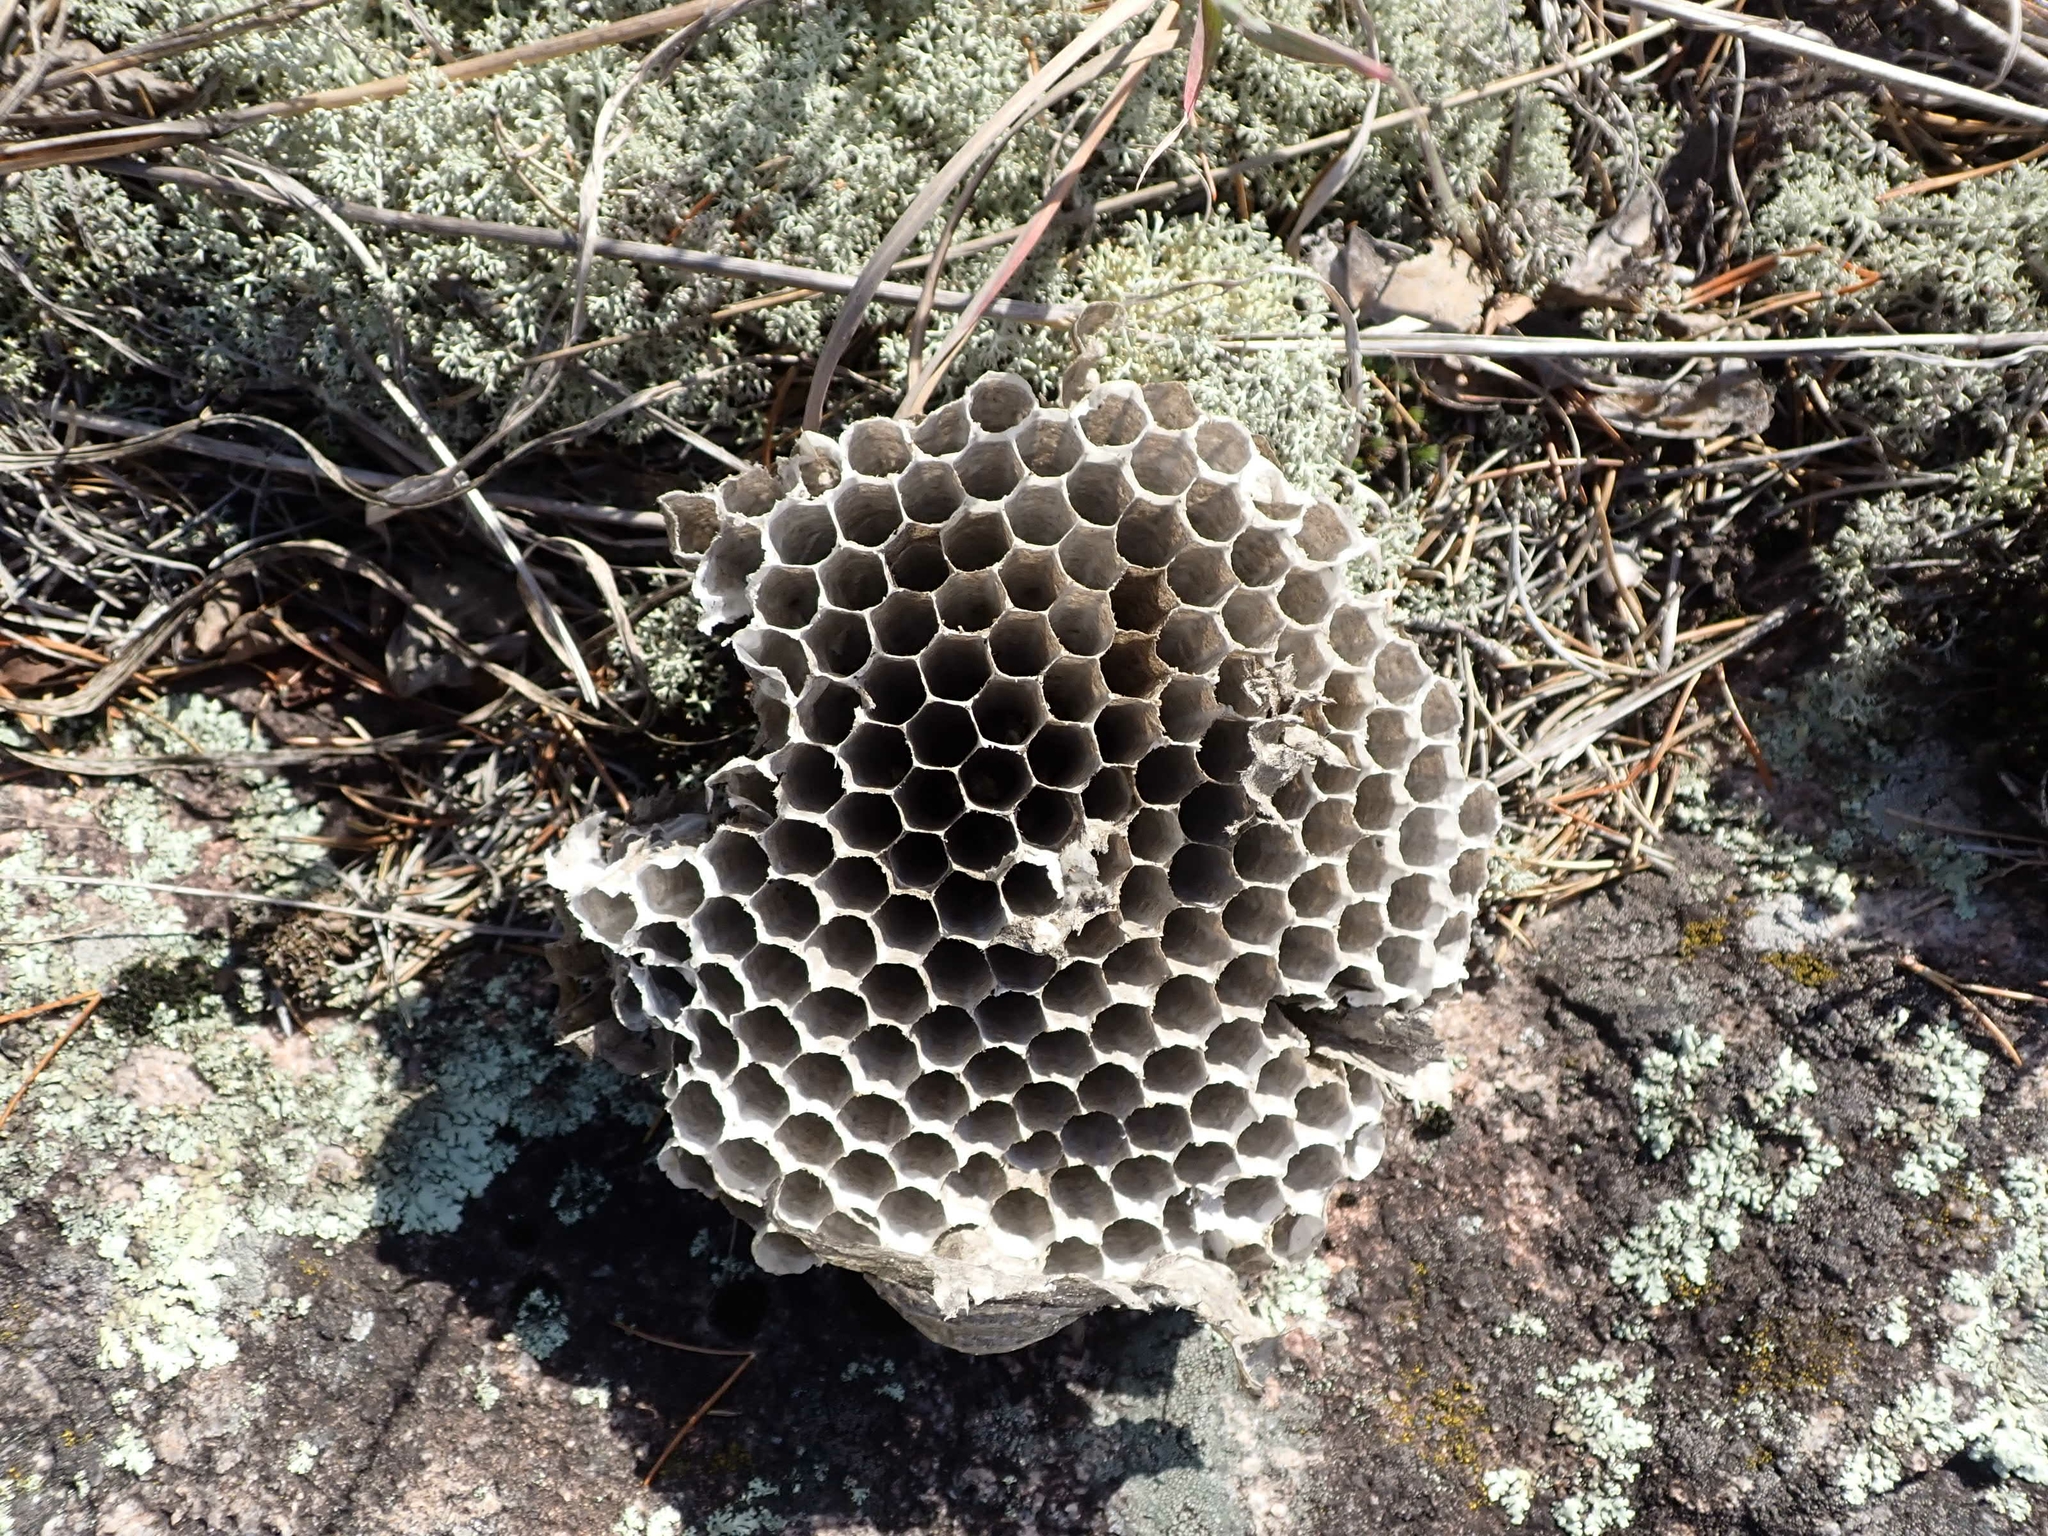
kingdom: Animalia
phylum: Arthropoda
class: Insecta
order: Hymenoptera
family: Vespidae
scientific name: Vespidae
